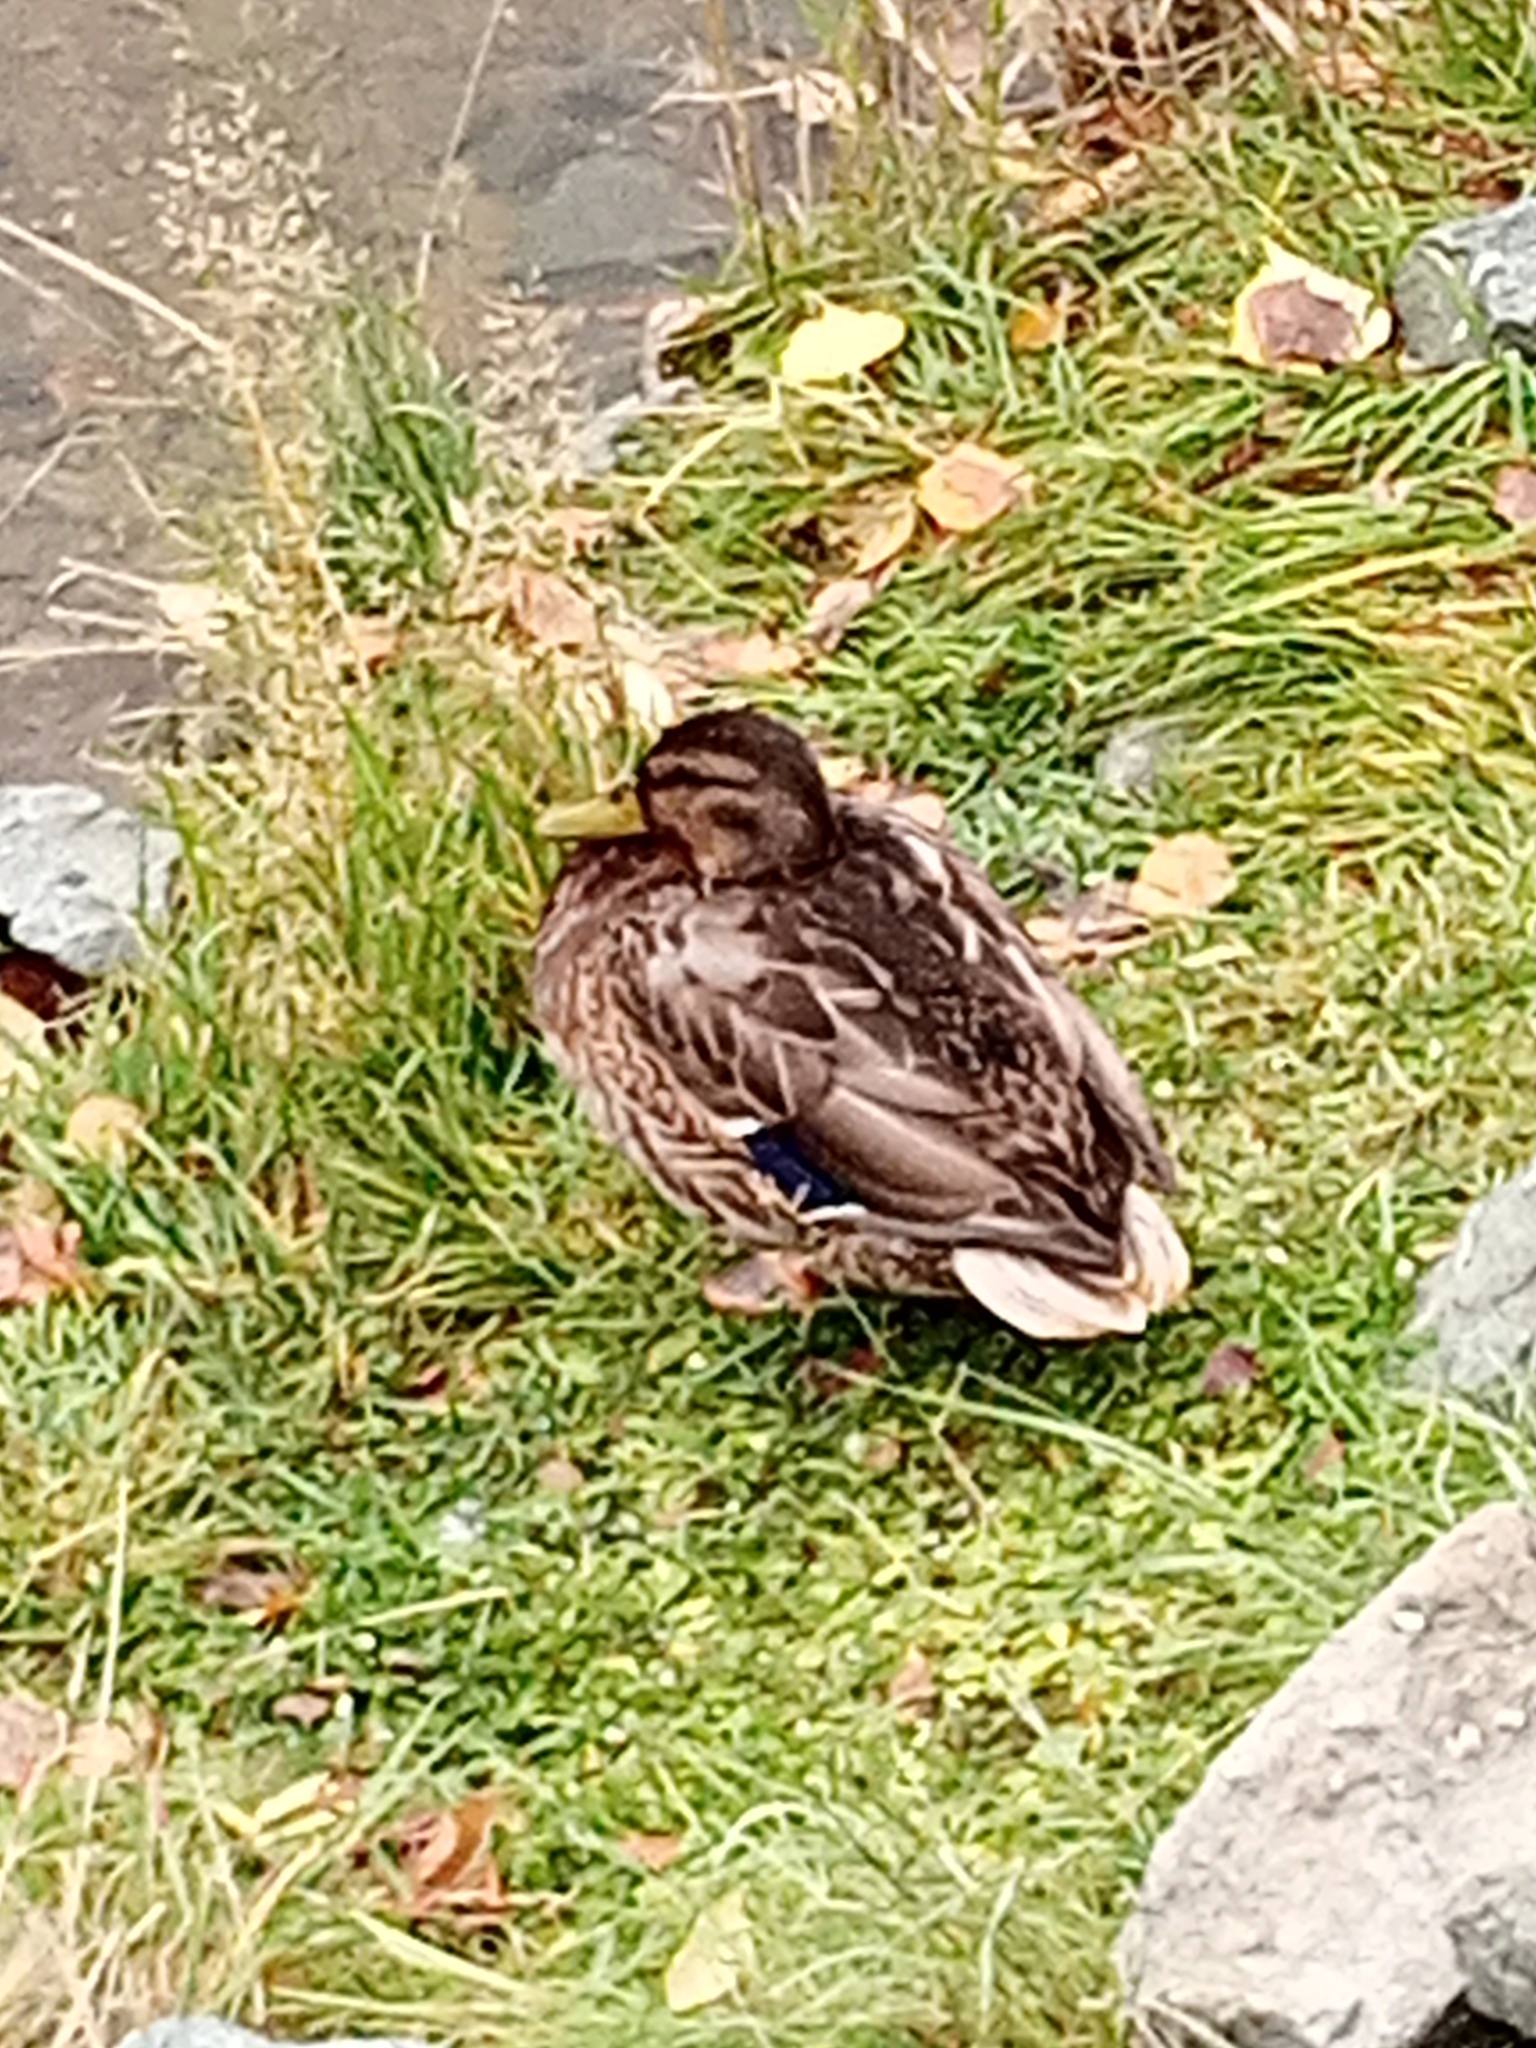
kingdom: Animalia
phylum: Chordata
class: Aves
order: Anseriformes
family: Anatidae
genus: Anas
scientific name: Anas platyrhynchos
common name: Mallard
